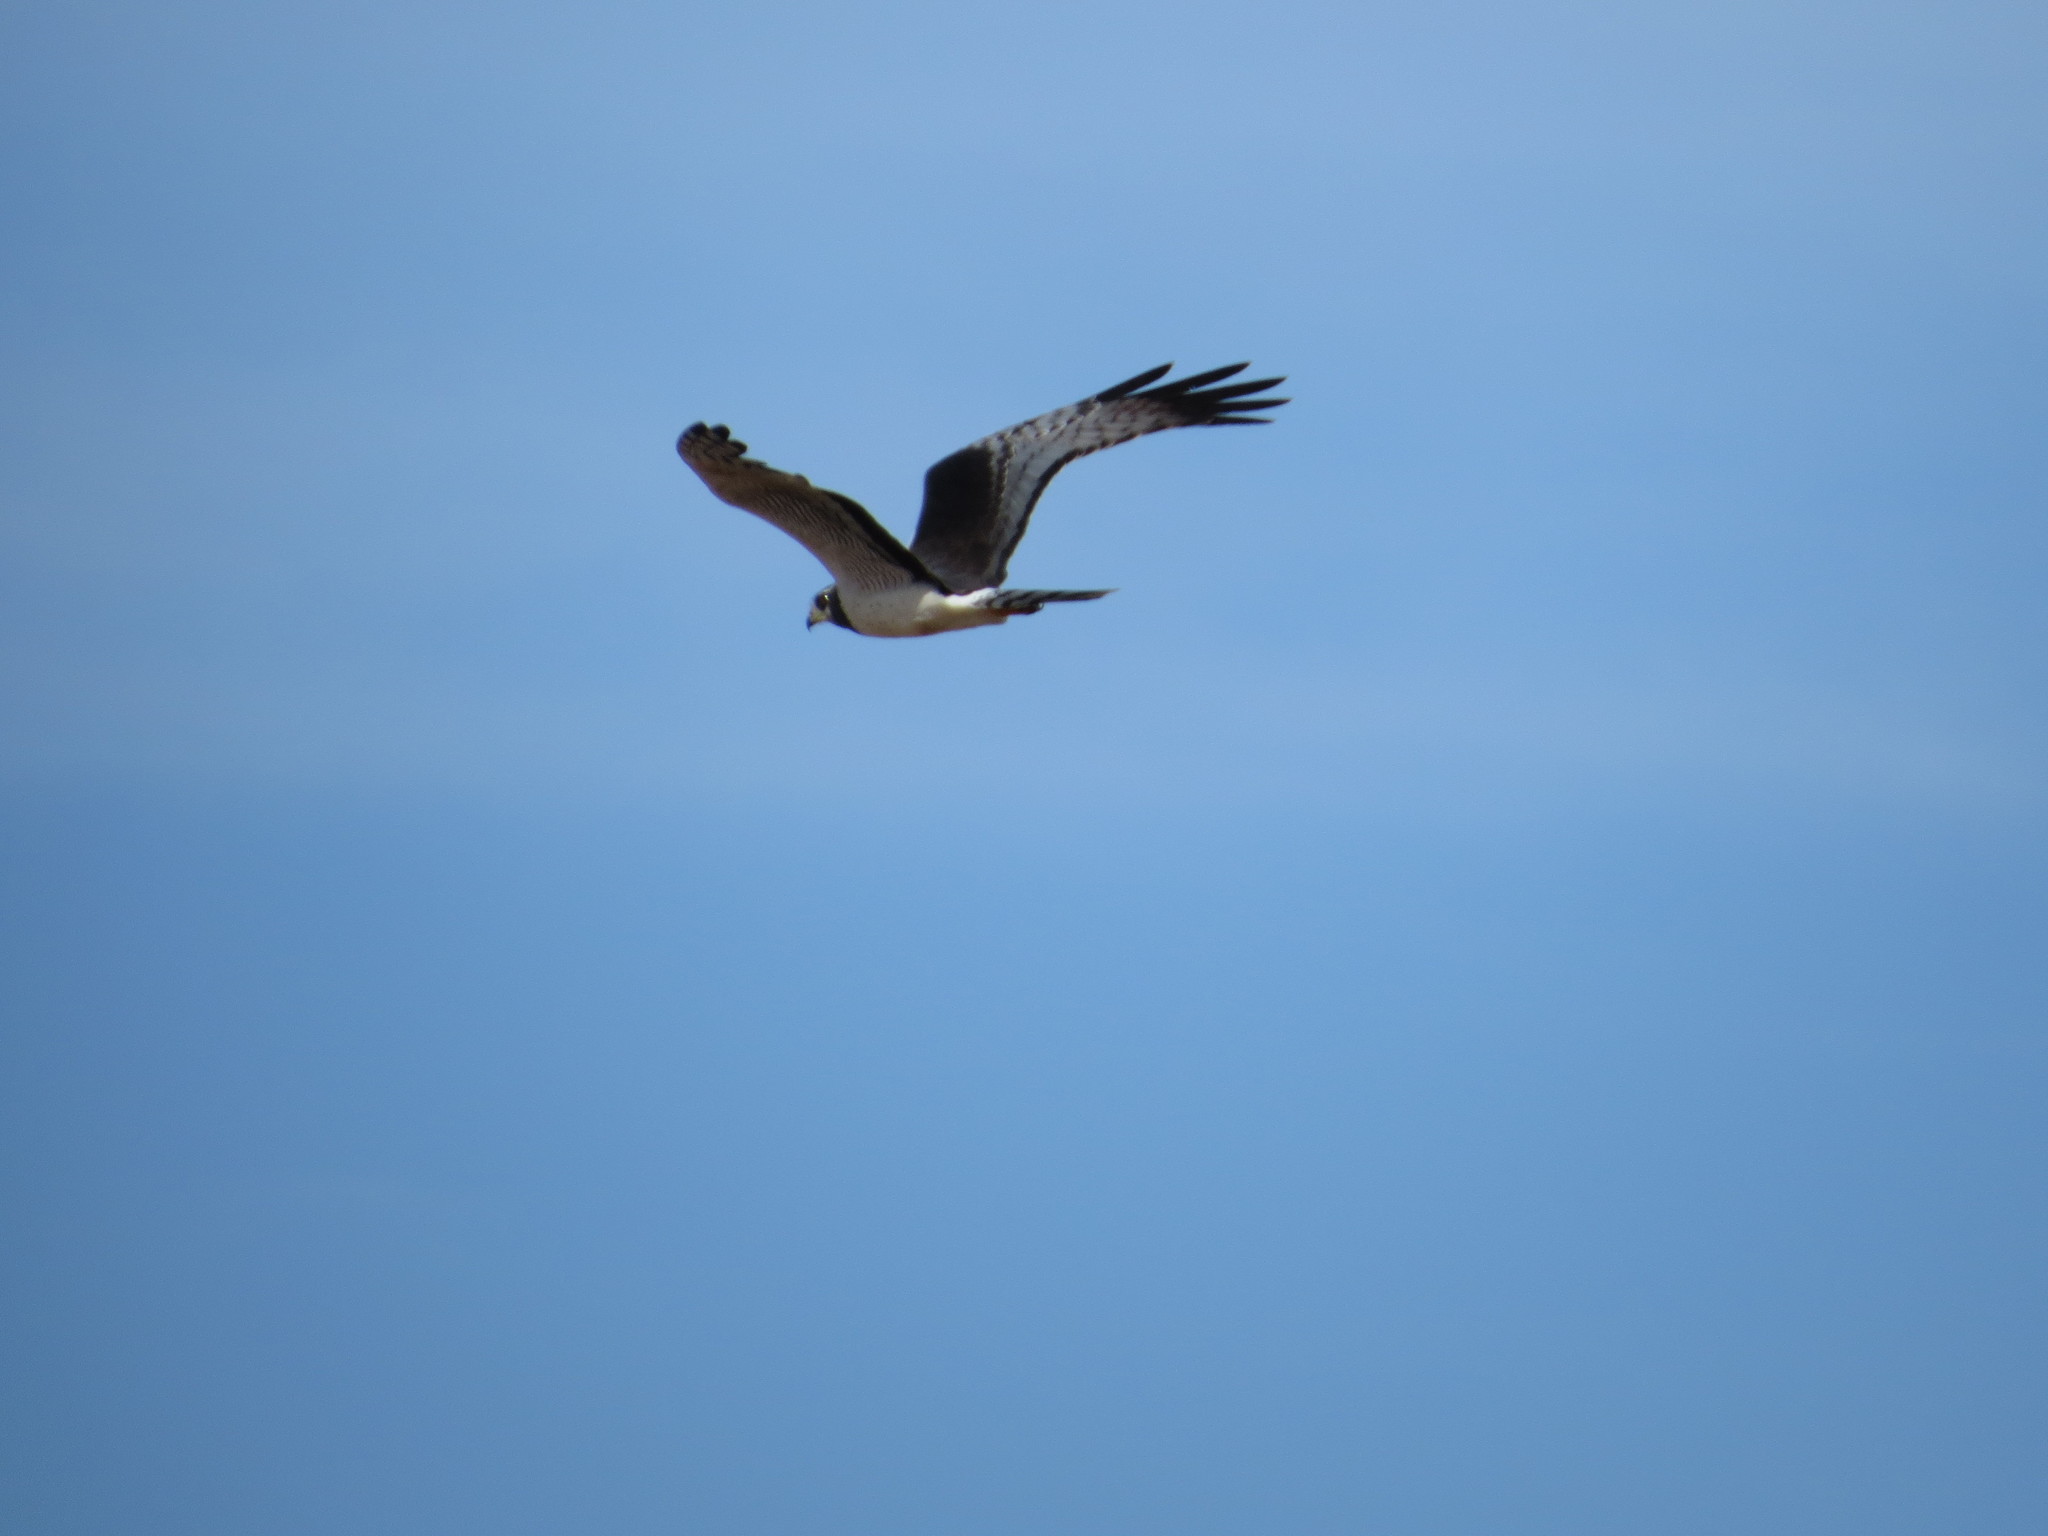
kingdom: Animalia
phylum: Chordata
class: Aves
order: Accipitriformes
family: Accipitridae
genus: Circus
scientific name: Circus buffoni
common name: Long-winged harrier
